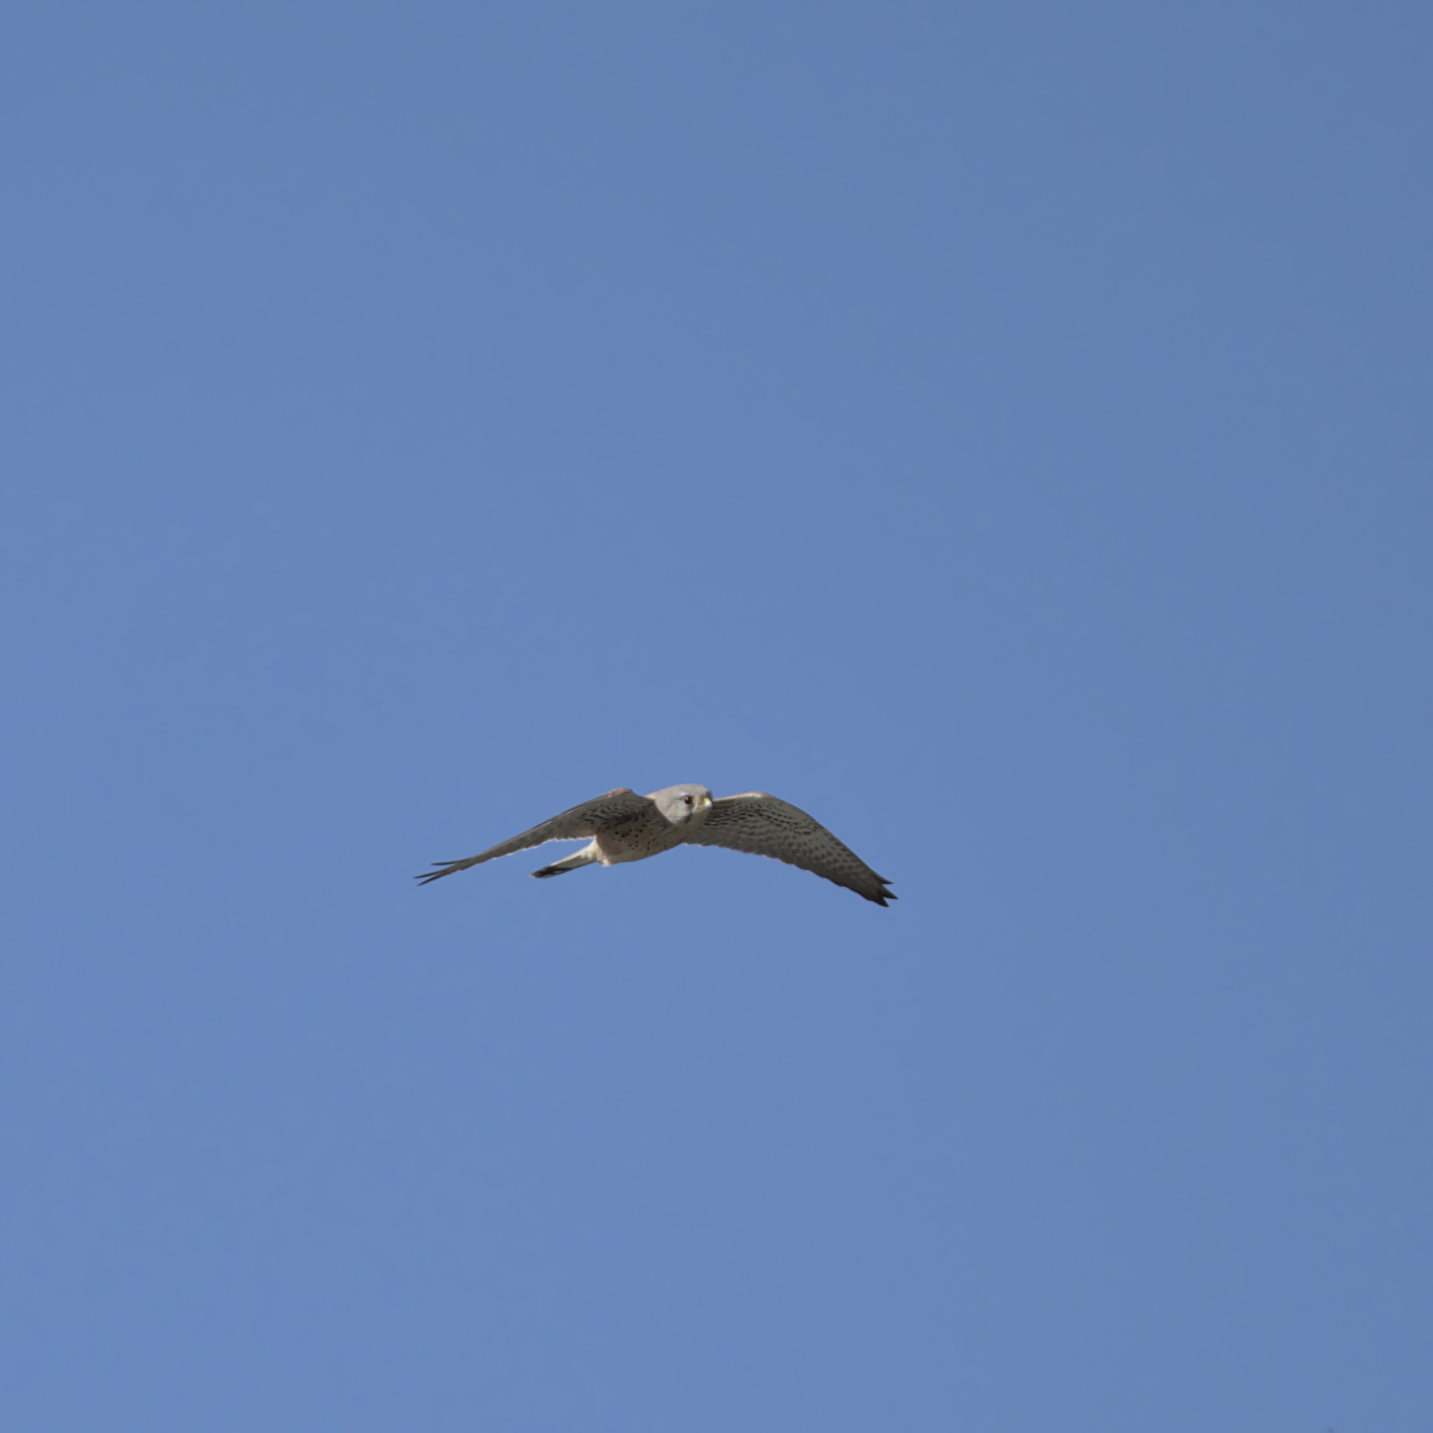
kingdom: Animalia
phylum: Chordata
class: Aves
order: Falconiformes
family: Falconidae
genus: Falco
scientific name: Falco tinnunculus
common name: Common kestrel
